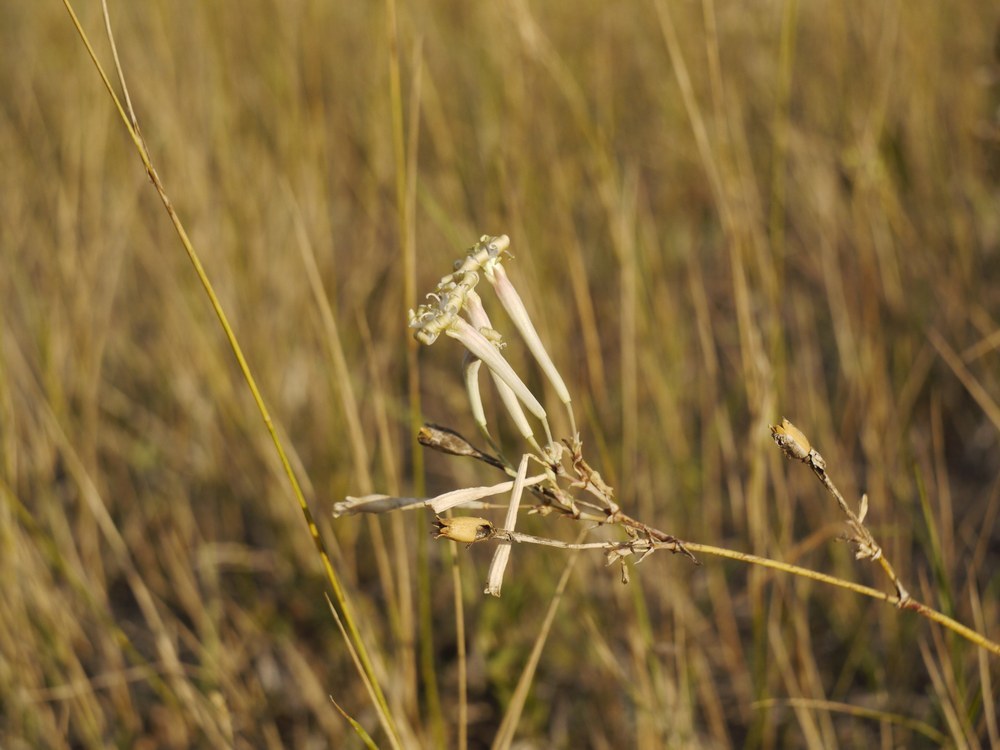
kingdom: Plantae
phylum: Tracheophyta
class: Magnoliopsida
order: Caryophyllales
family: Caryophyllaceae
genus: Silene
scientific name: Silene bupleuroides
